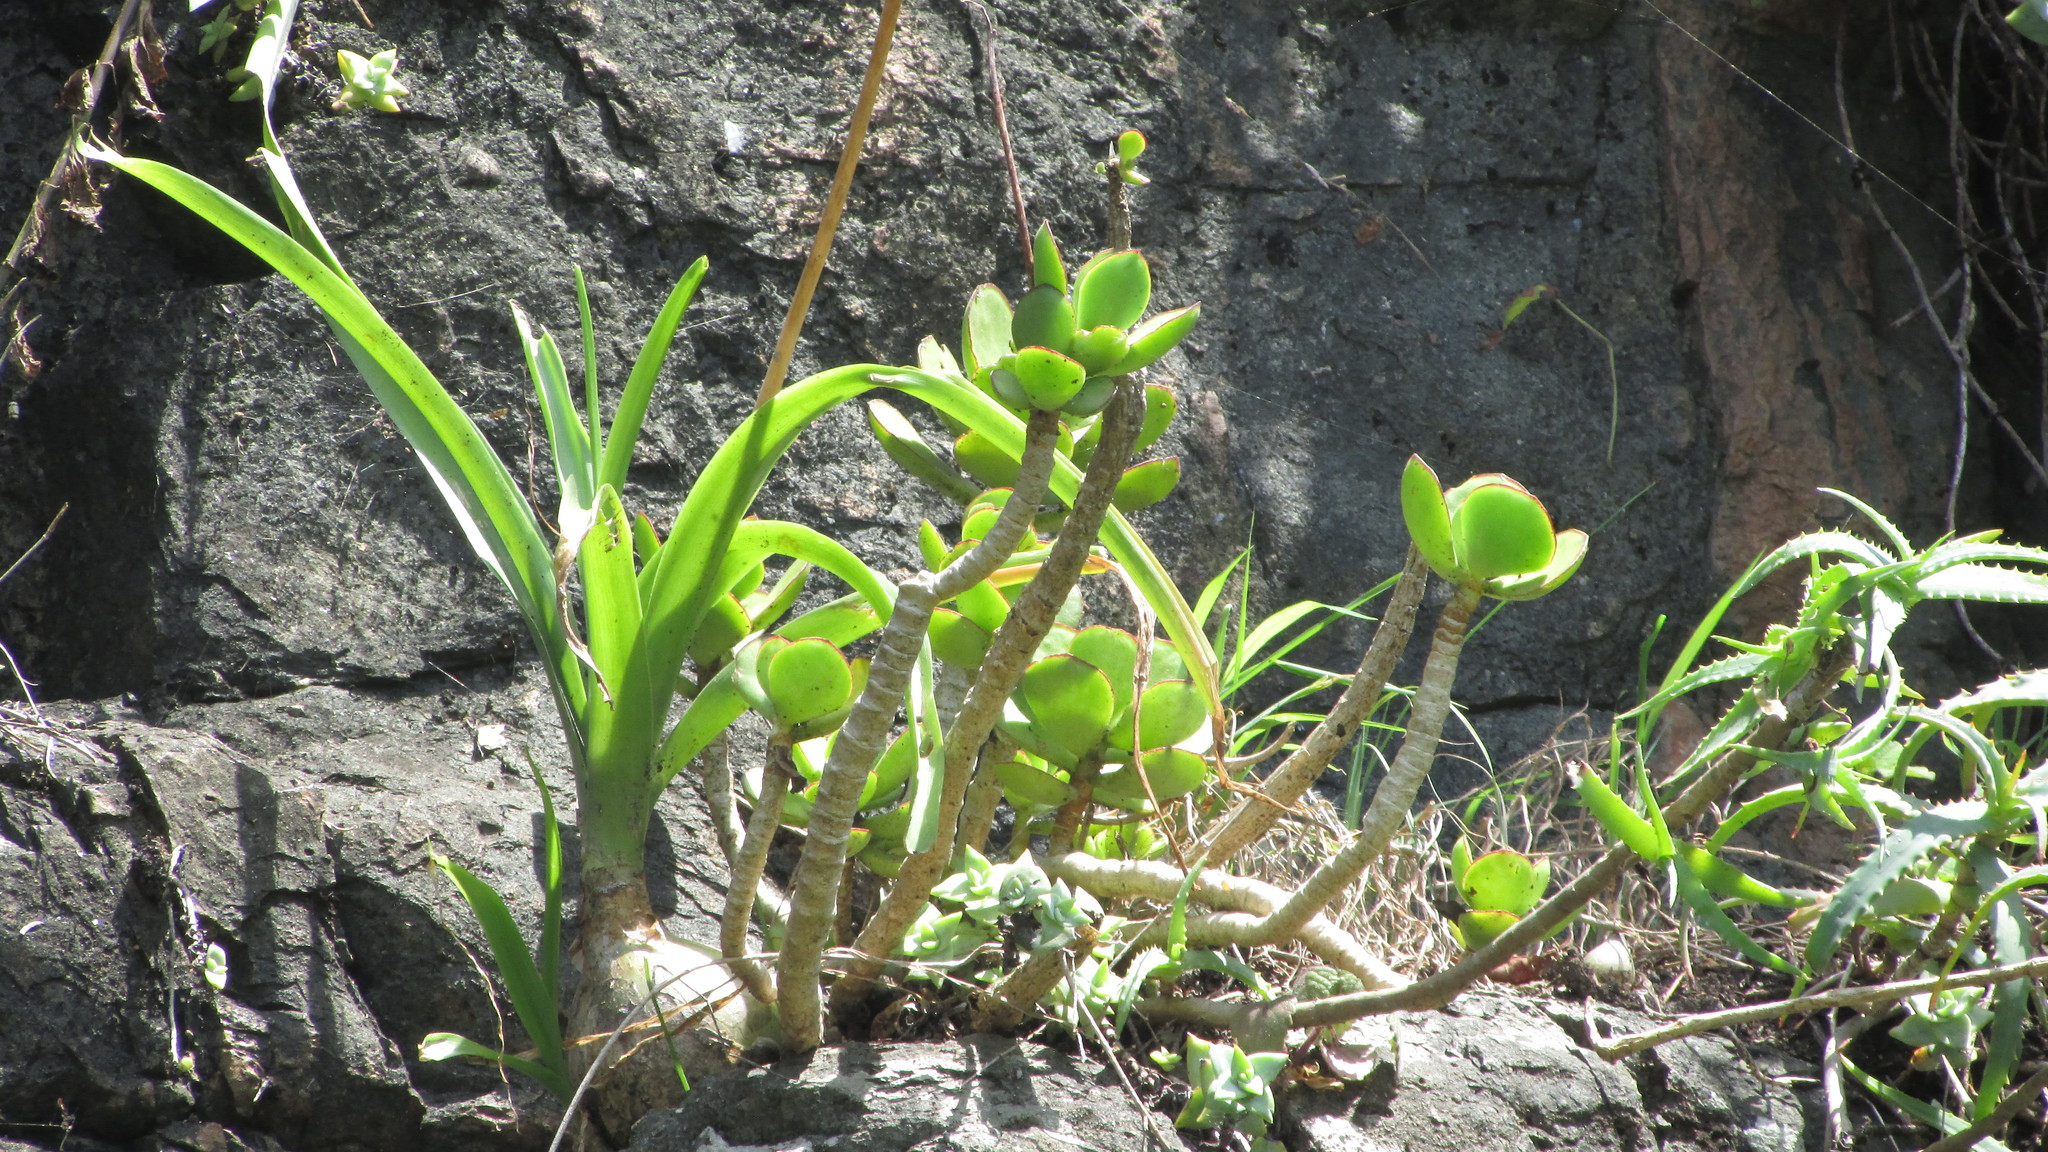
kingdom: Plantae
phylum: Tracheophyta
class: Magnoliopsida
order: Saxifragales
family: Crassulaceae
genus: Cotyledon
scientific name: Cotyledon orbiculata
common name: Pig's ear
